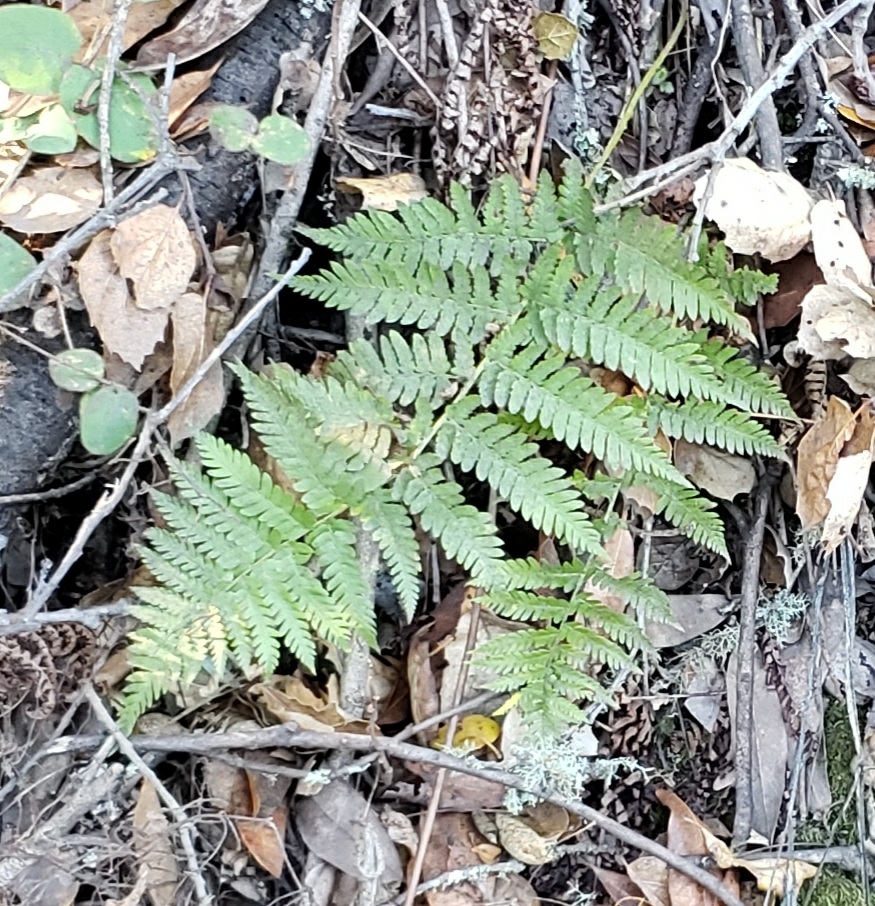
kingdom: Plantae
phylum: Tracheophyta
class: Polypodiopsida
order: Polypodiales
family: Dryopteridaceae
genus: Dryopteris
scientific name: Dryopteris arguta
